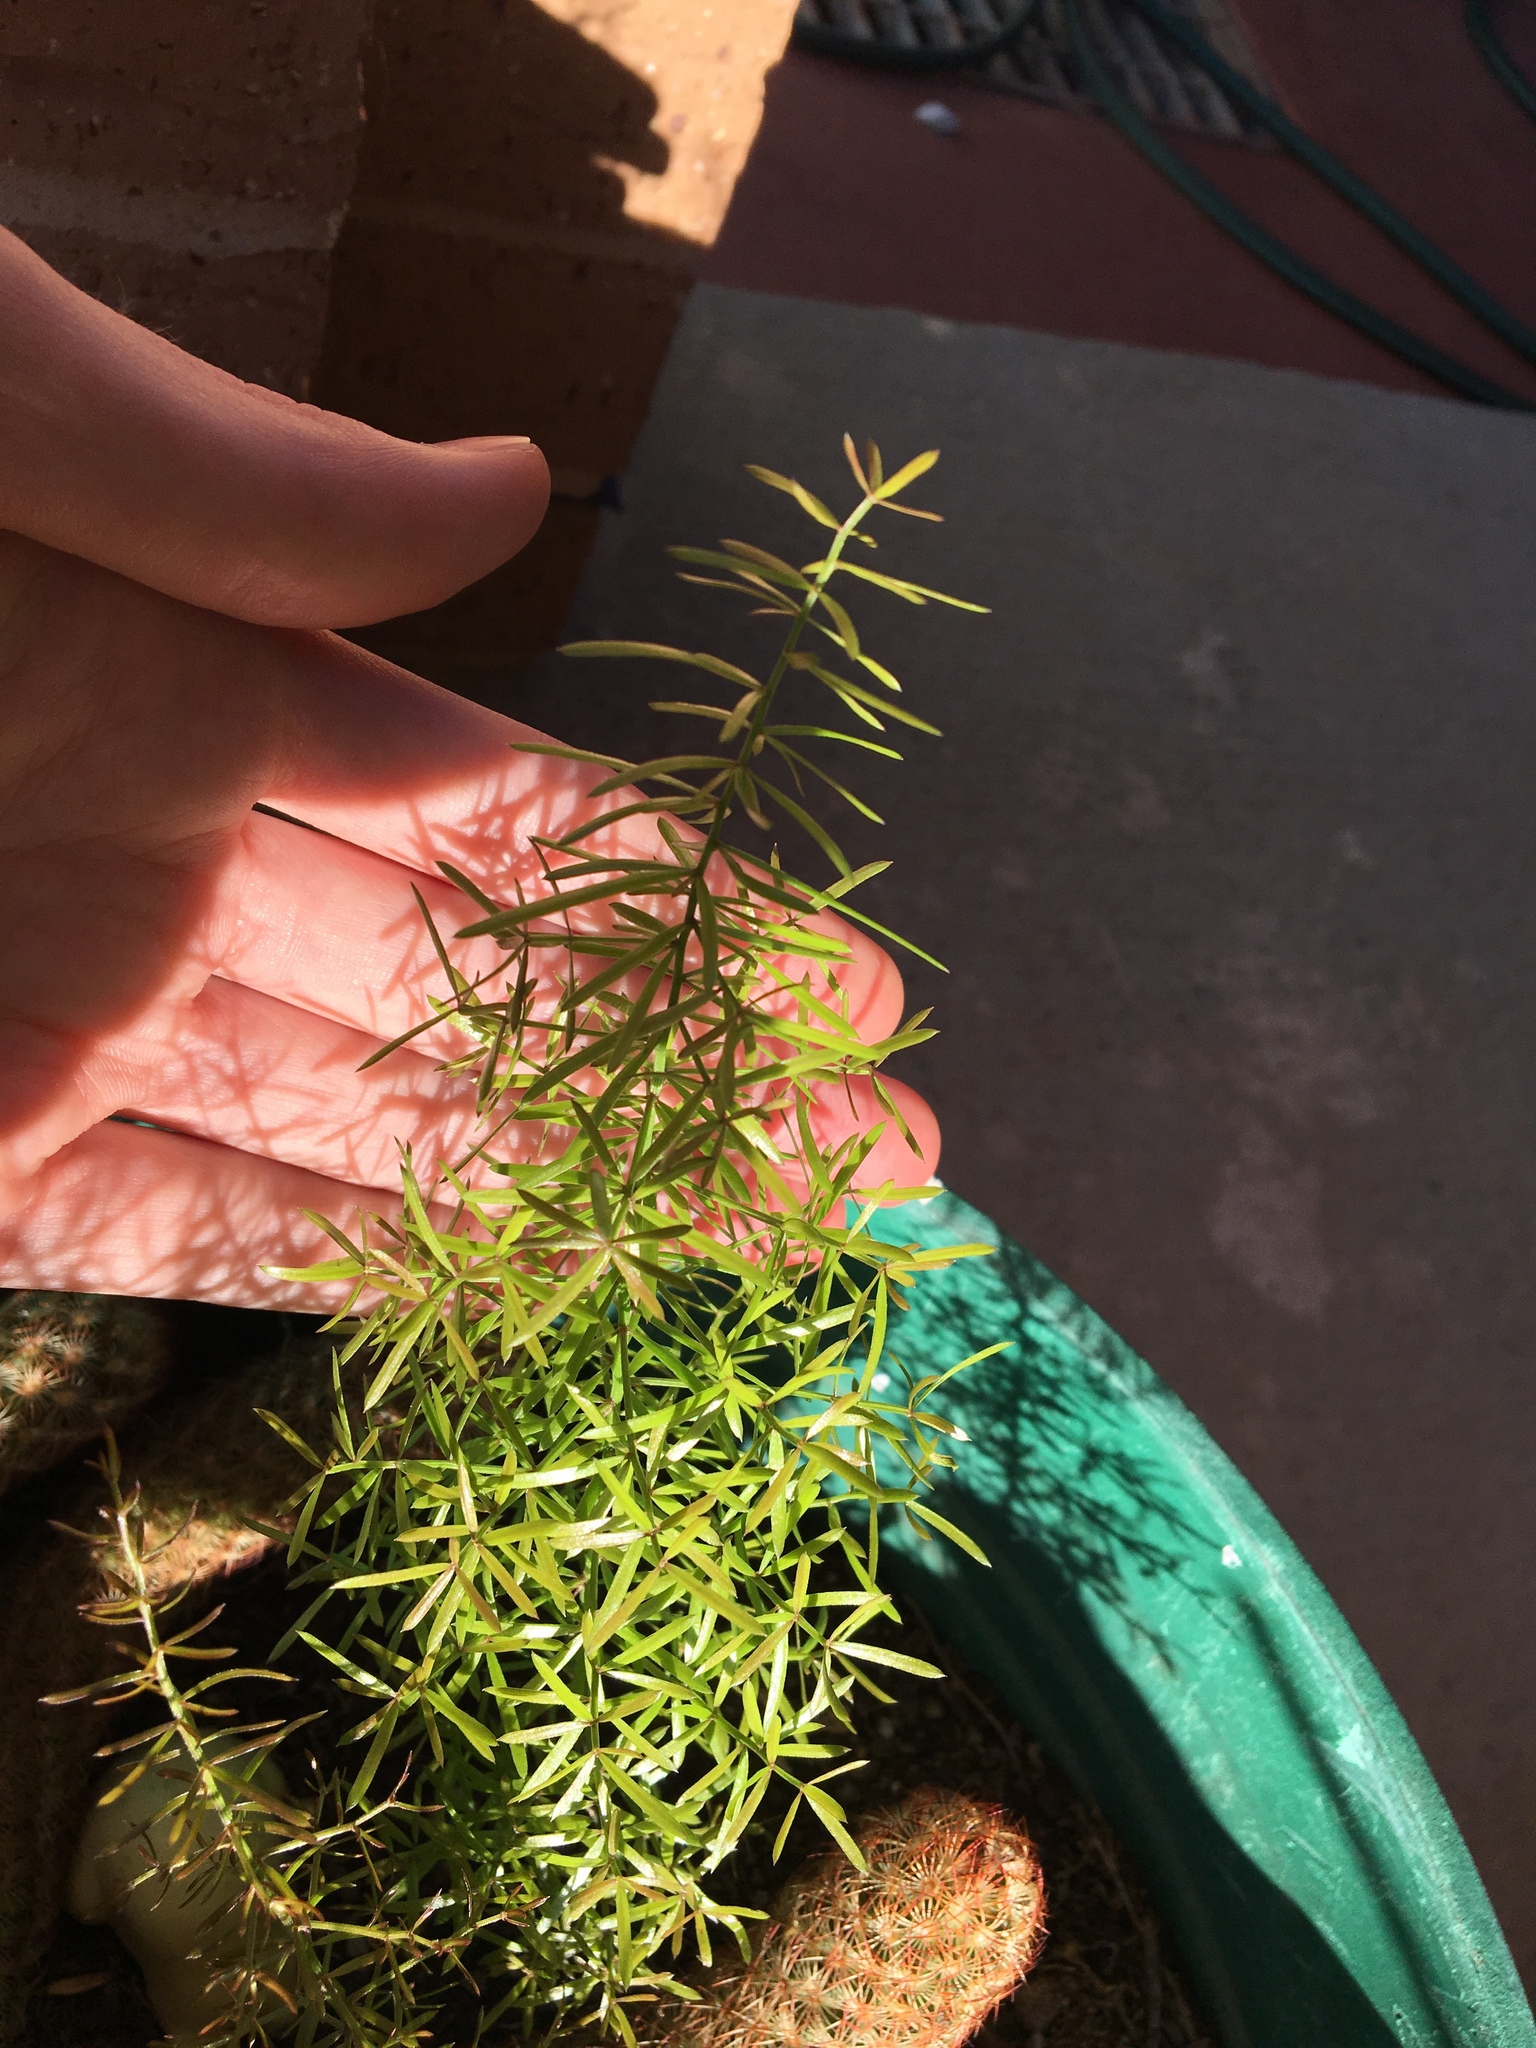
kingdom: Plantae
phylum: Tracheophyta
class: Liliopsida
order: Asparagales
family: Asparagaceae
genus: Asparagus
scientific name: Asparagus aethiopicus
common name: Sprenger's asparagus fern
